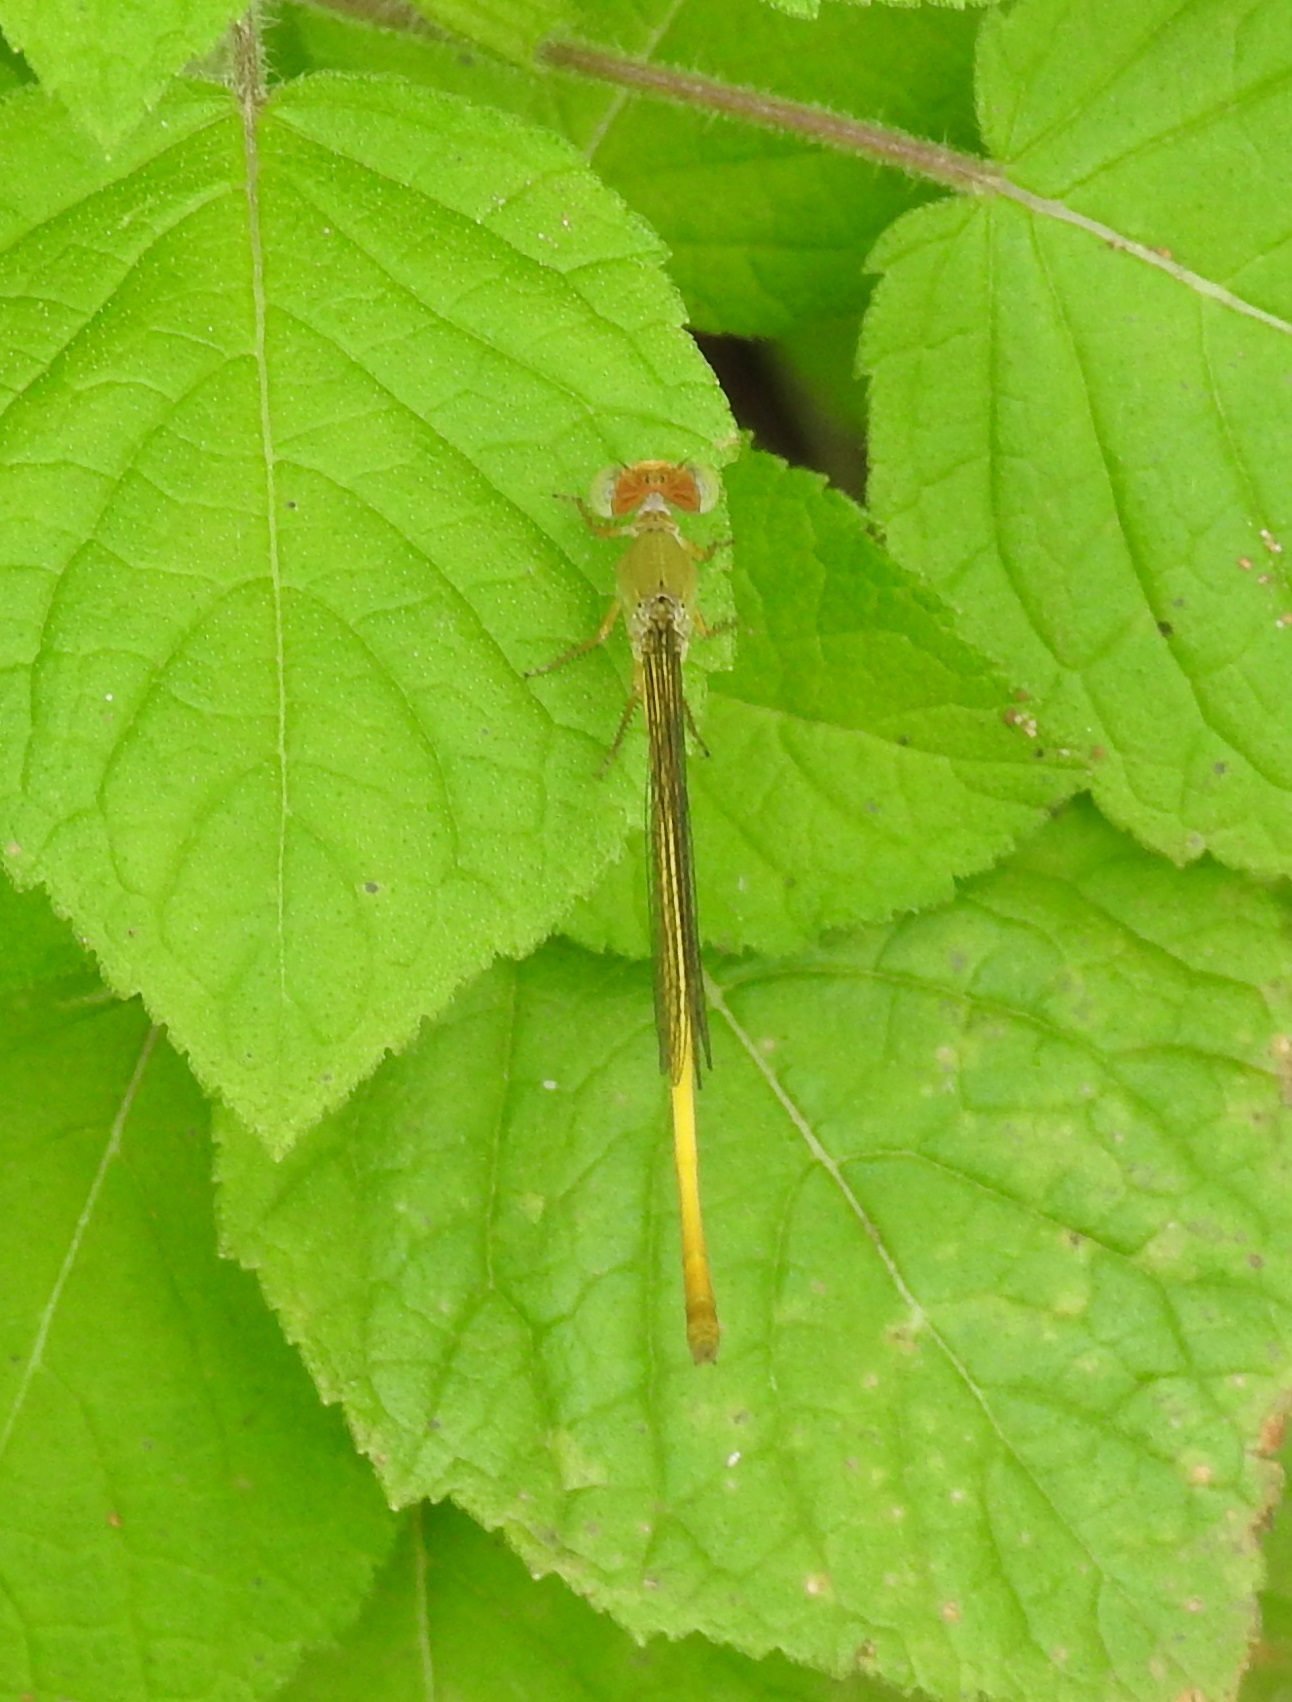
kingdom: Animalia
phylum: Arthropoda
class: Insecta
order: Odonata
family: Coenagrionidae
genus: Ceriagrion
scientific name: Ceriagrion coromandelianum
